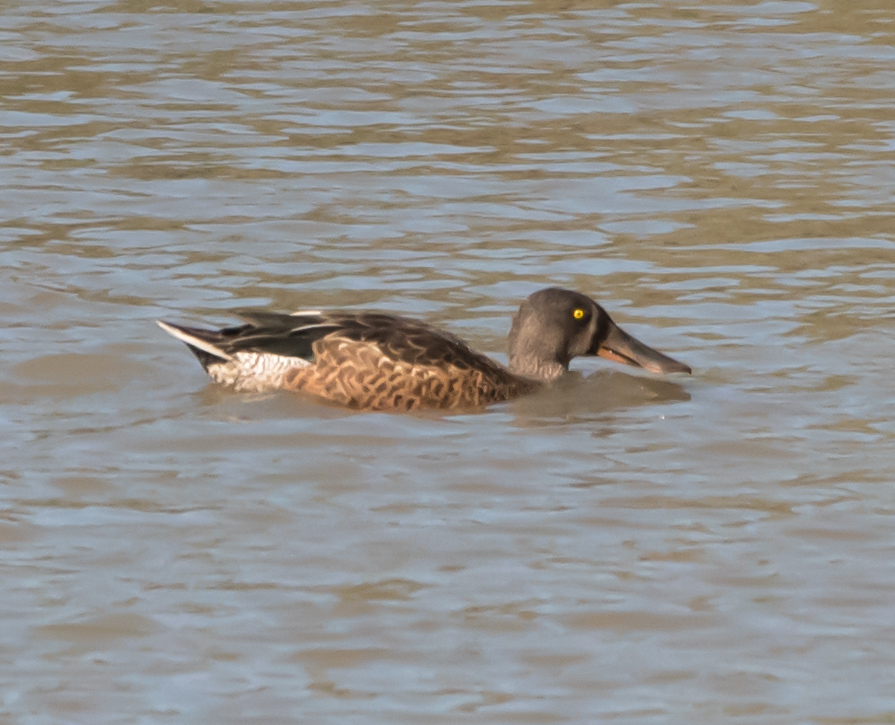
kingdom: Animalia
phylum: Chordata
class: Aves
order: Anseriformes
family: Anatidae
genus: Spatula
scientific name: Spatula clypeata
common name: Northern shoveler
